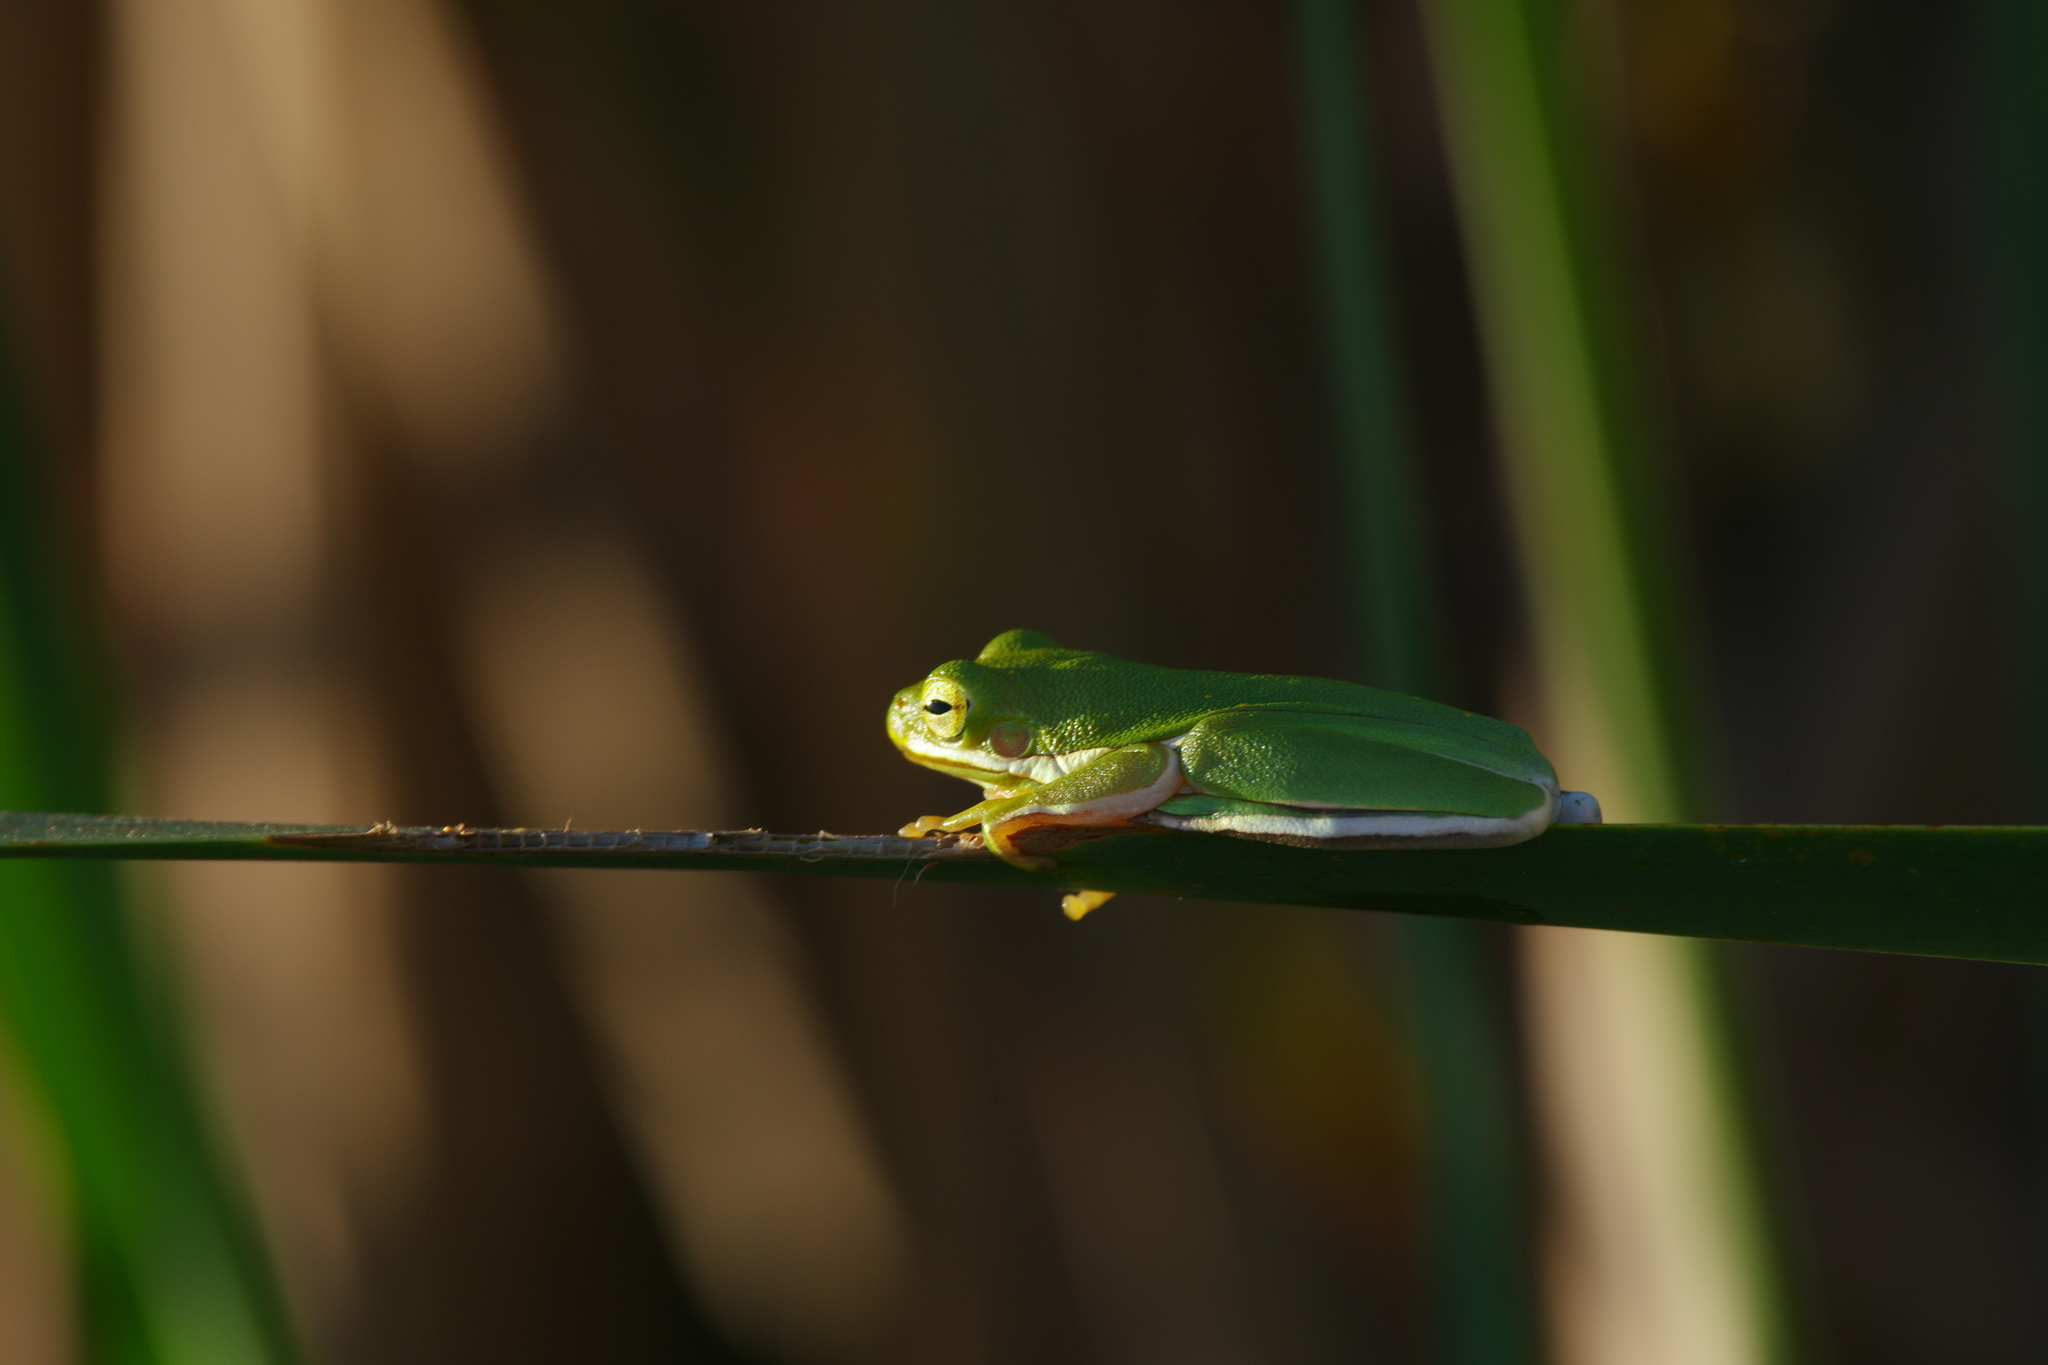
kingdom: Animalia
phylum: Chordata
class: Amphibia
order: Anura
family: Hylidae
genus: Dryophytes
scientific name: Dryophytes cinereus
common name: Green treefrog
